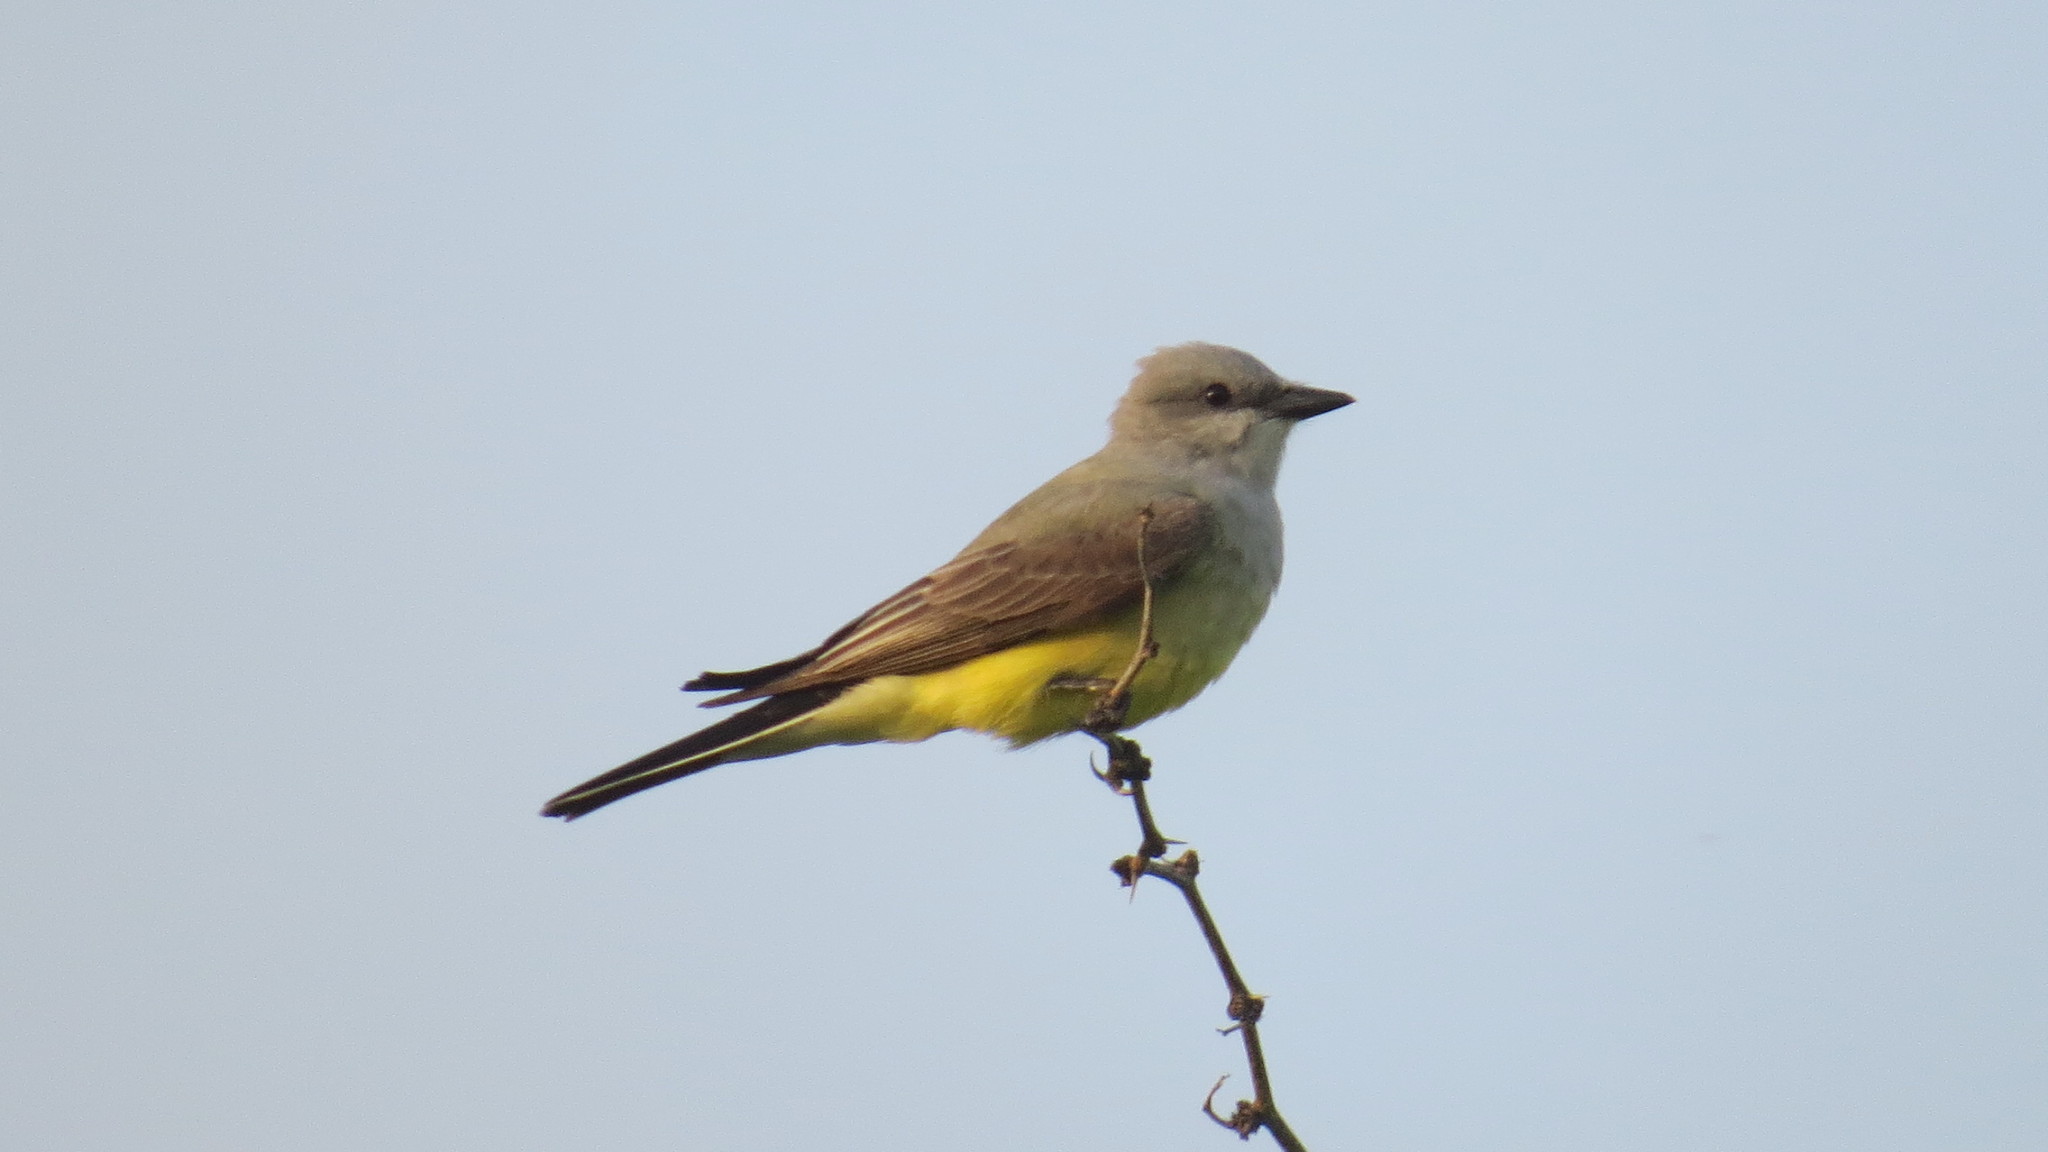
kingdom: Animalia
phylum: Chordata
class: Aves
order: Passeriformes
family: Tyrannidae
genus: Tyrannus
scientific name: Tyrannus verticalis
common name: Western kingbird
